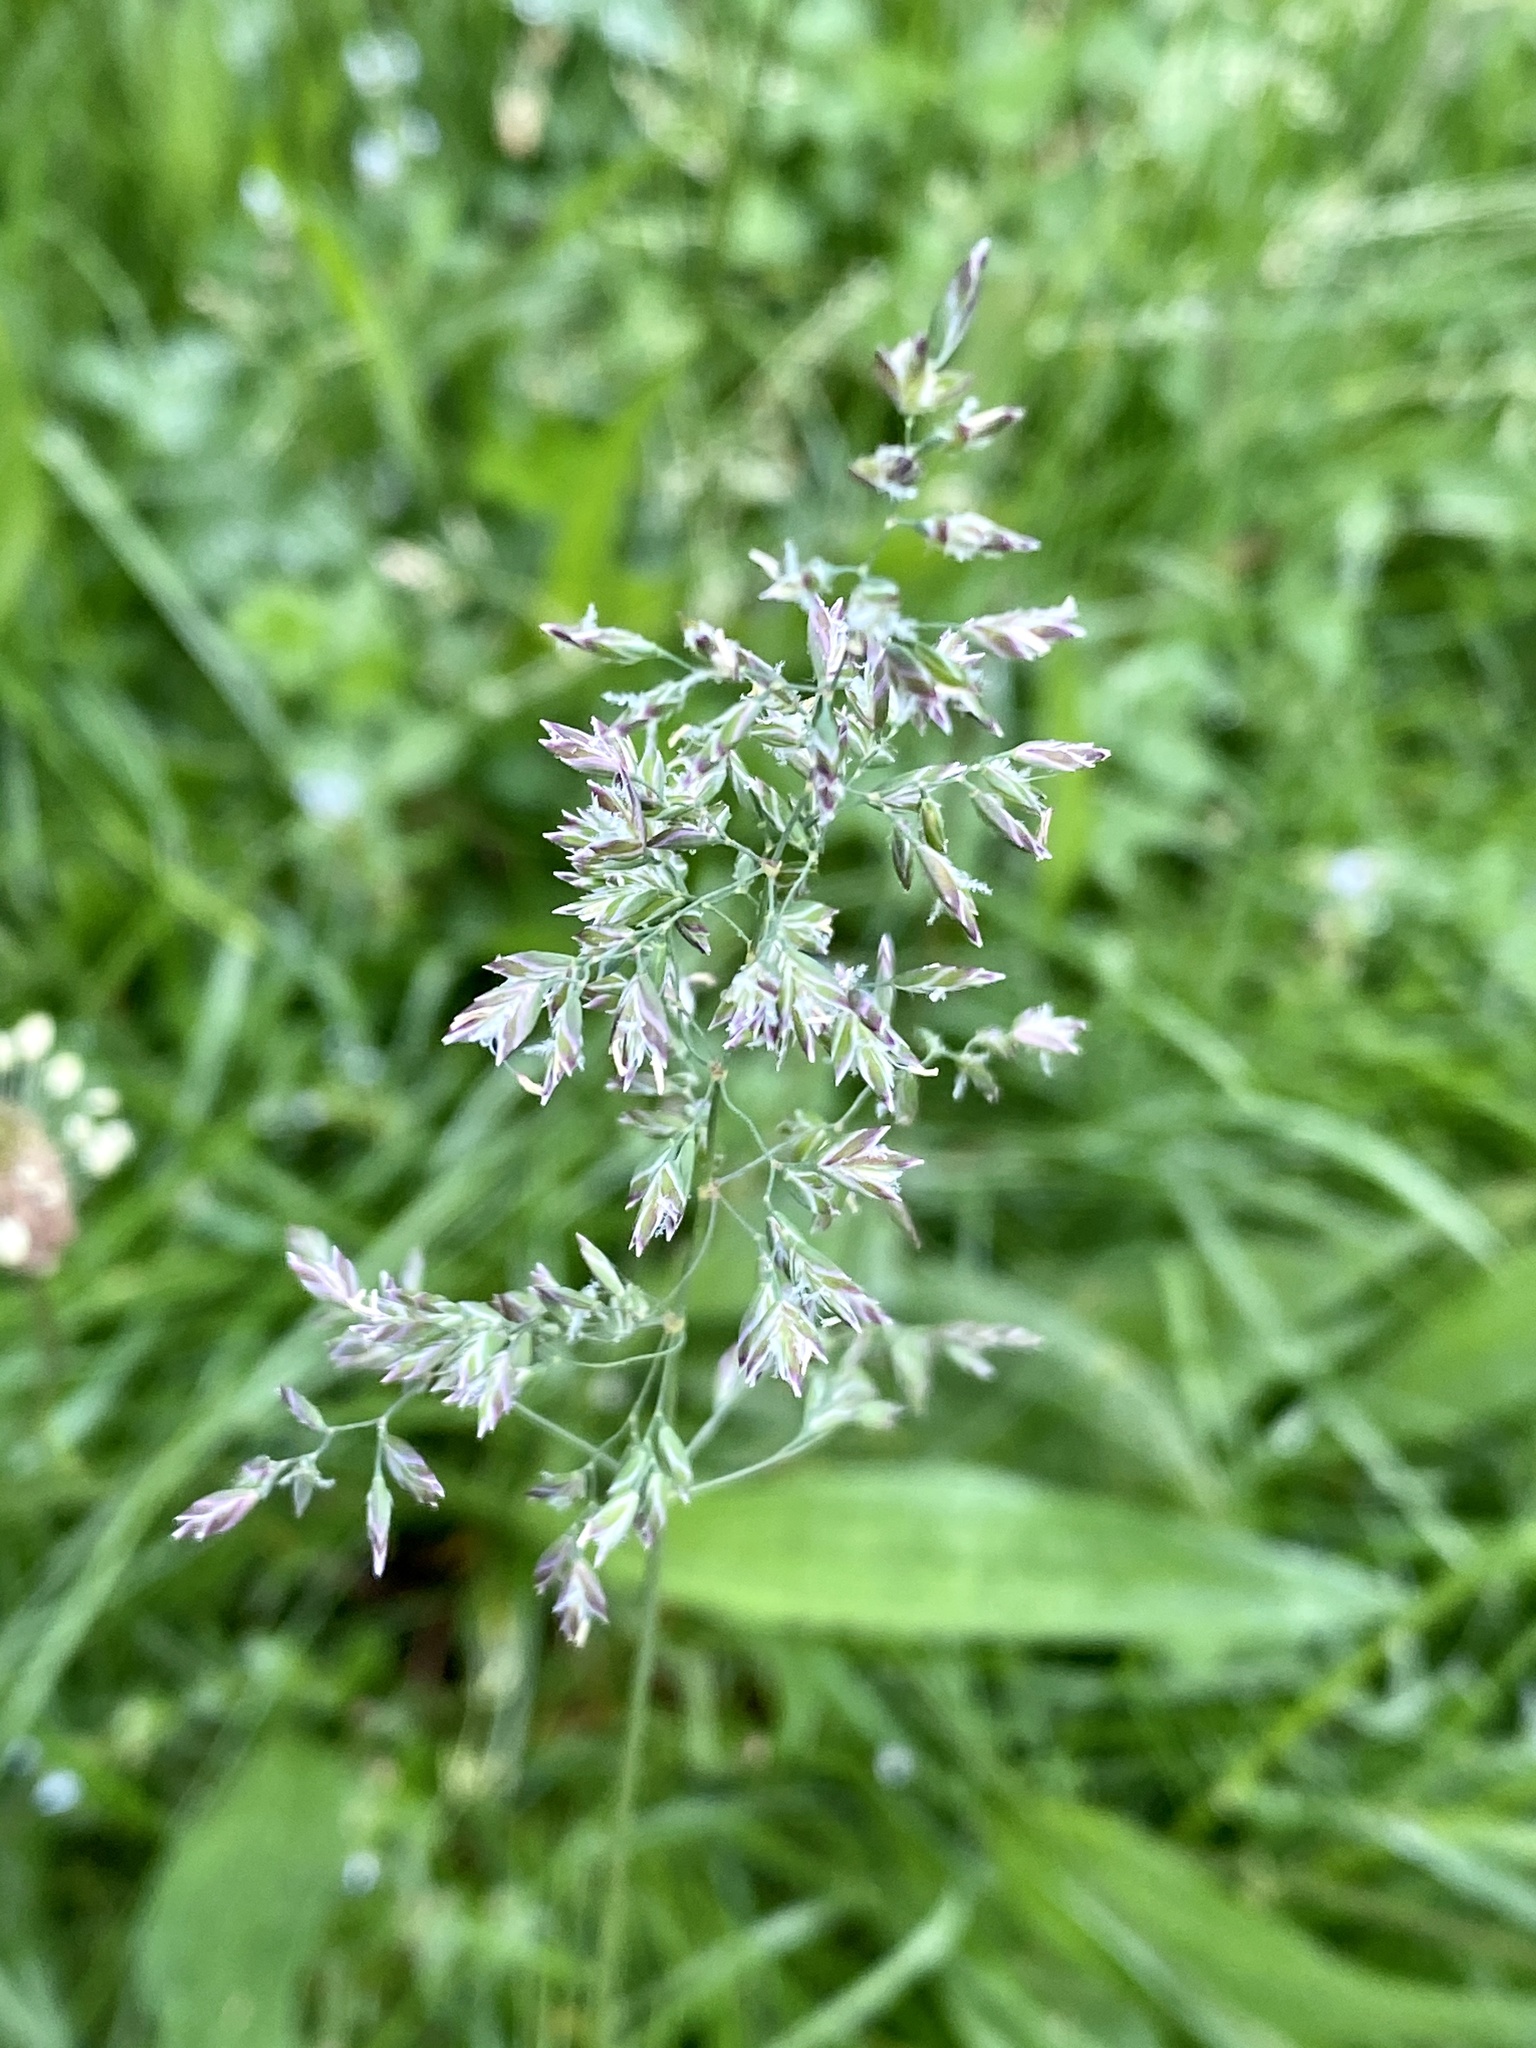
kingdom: Plantae
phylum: Tracheophyta
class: Liliopsida
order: Poales
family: Poaceae
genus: Poa
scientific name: Poa pratensis
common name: Kentucky bluegrass
